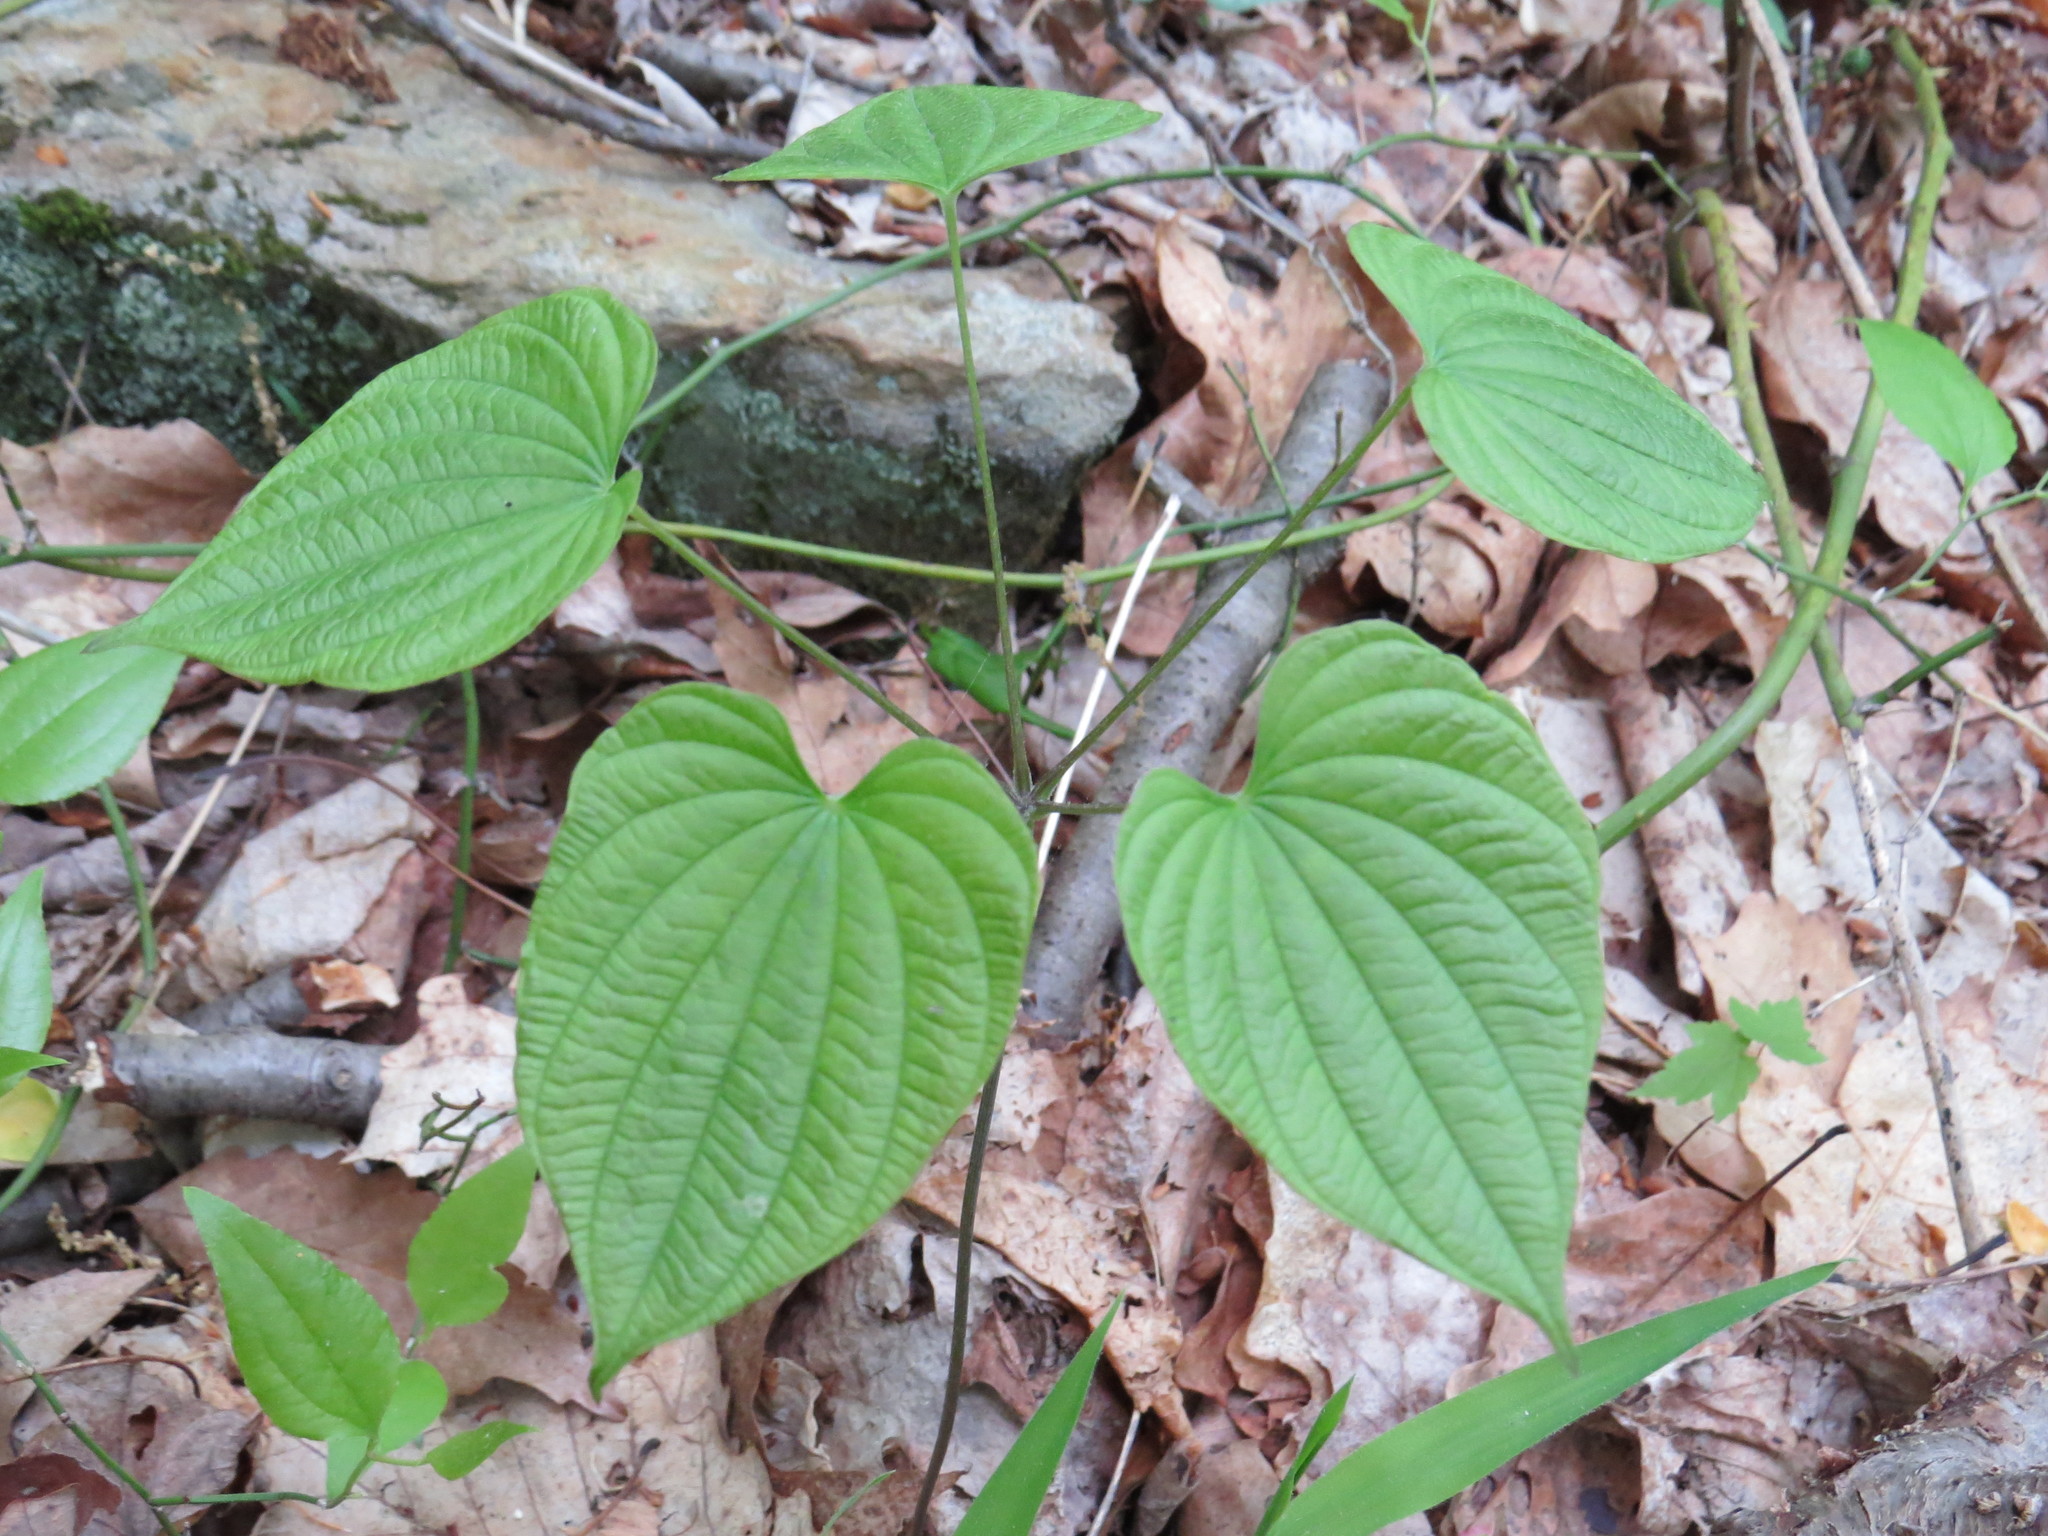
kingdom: Plantae
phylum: Tracheophyta
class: Liliopsida
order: Dioscoreales
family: Dioscoreaceae
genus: Dioscorea
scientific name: Dioscorea villosa
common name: Wild yam
